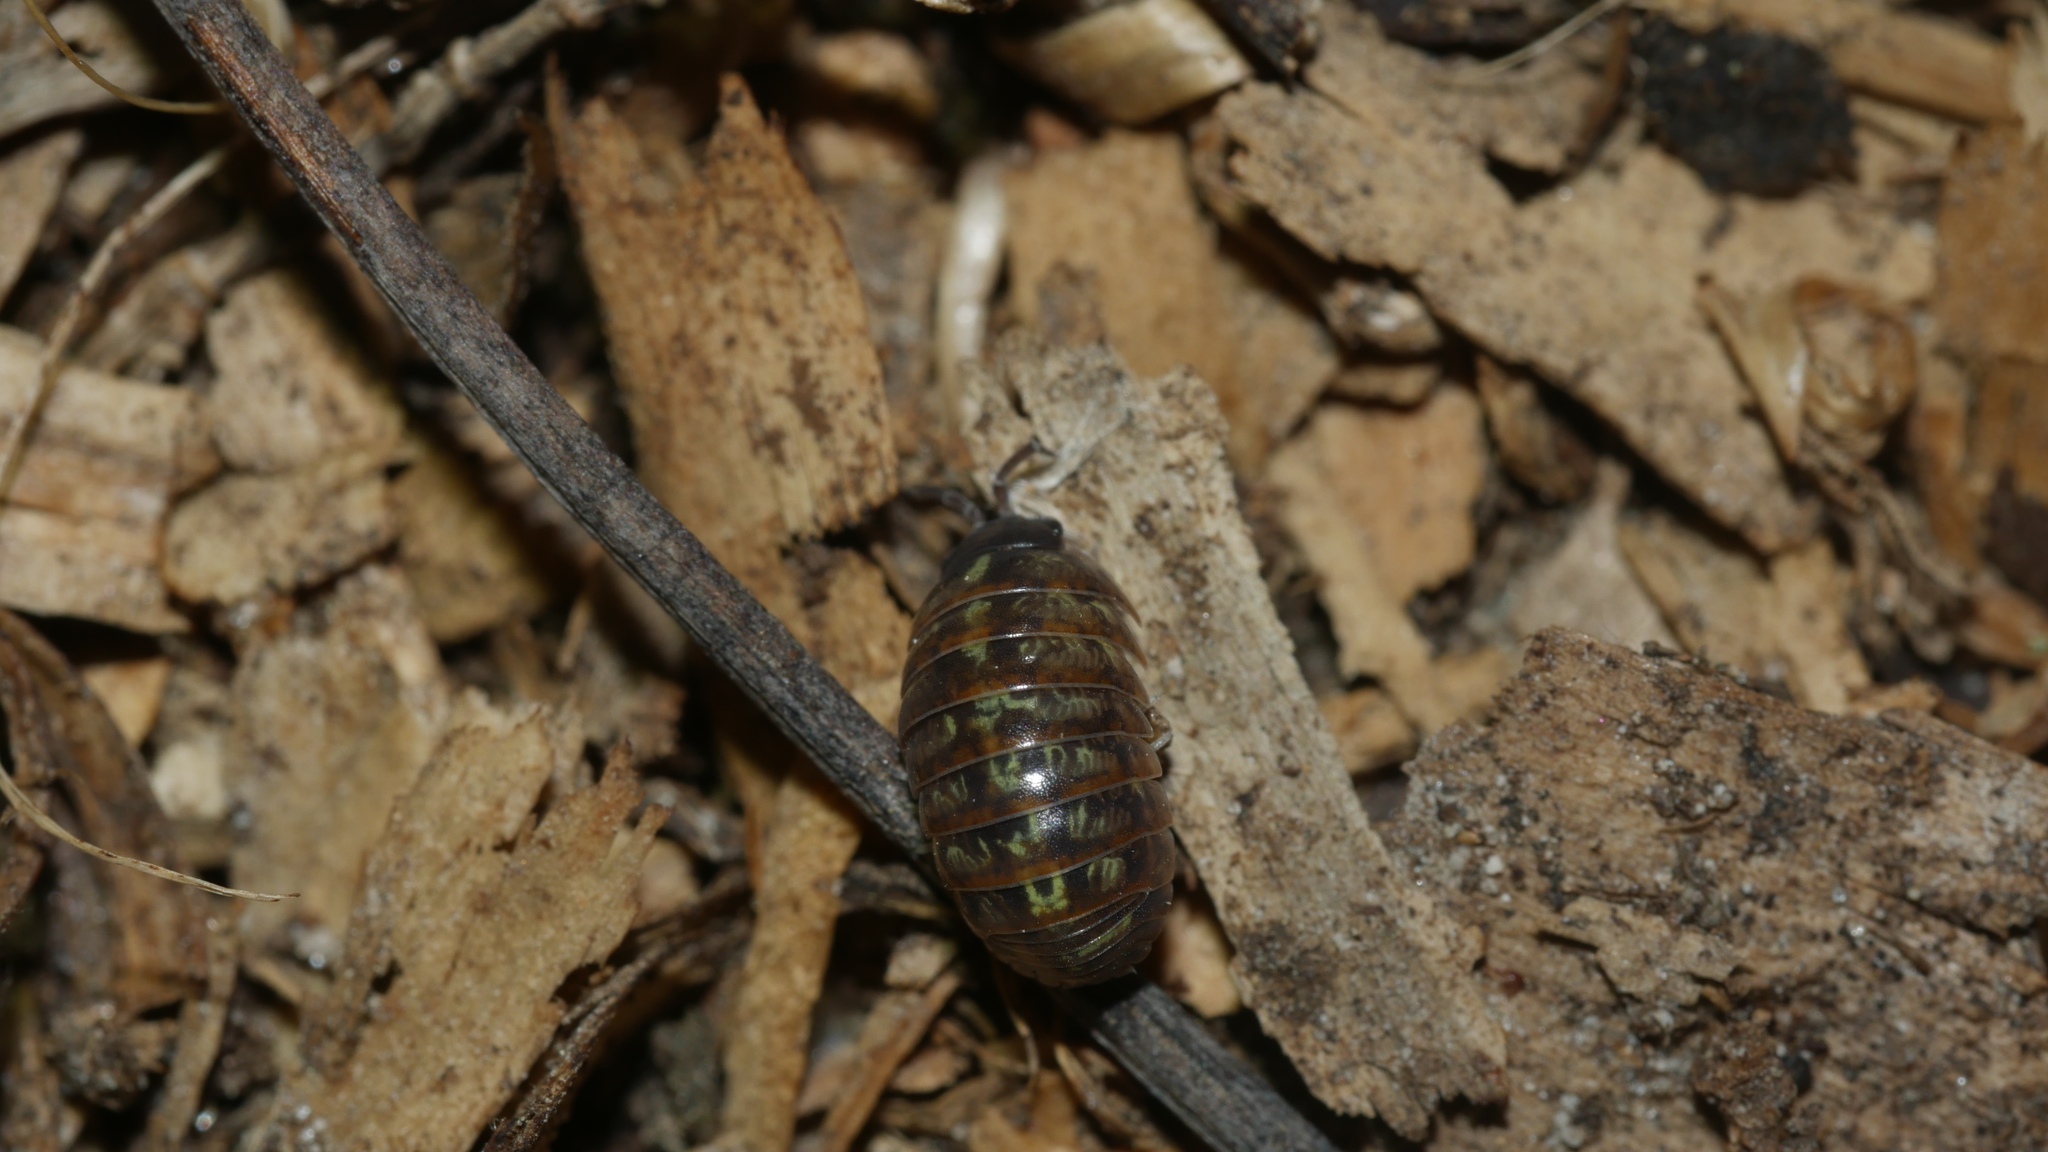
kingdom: Animalia
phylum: Arthropoda
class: Malacostraca
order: Isopoda
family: Armadillidiidae
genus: Armadillidium
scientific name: Armadillidium vulgare
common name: Common pill woodlouse
